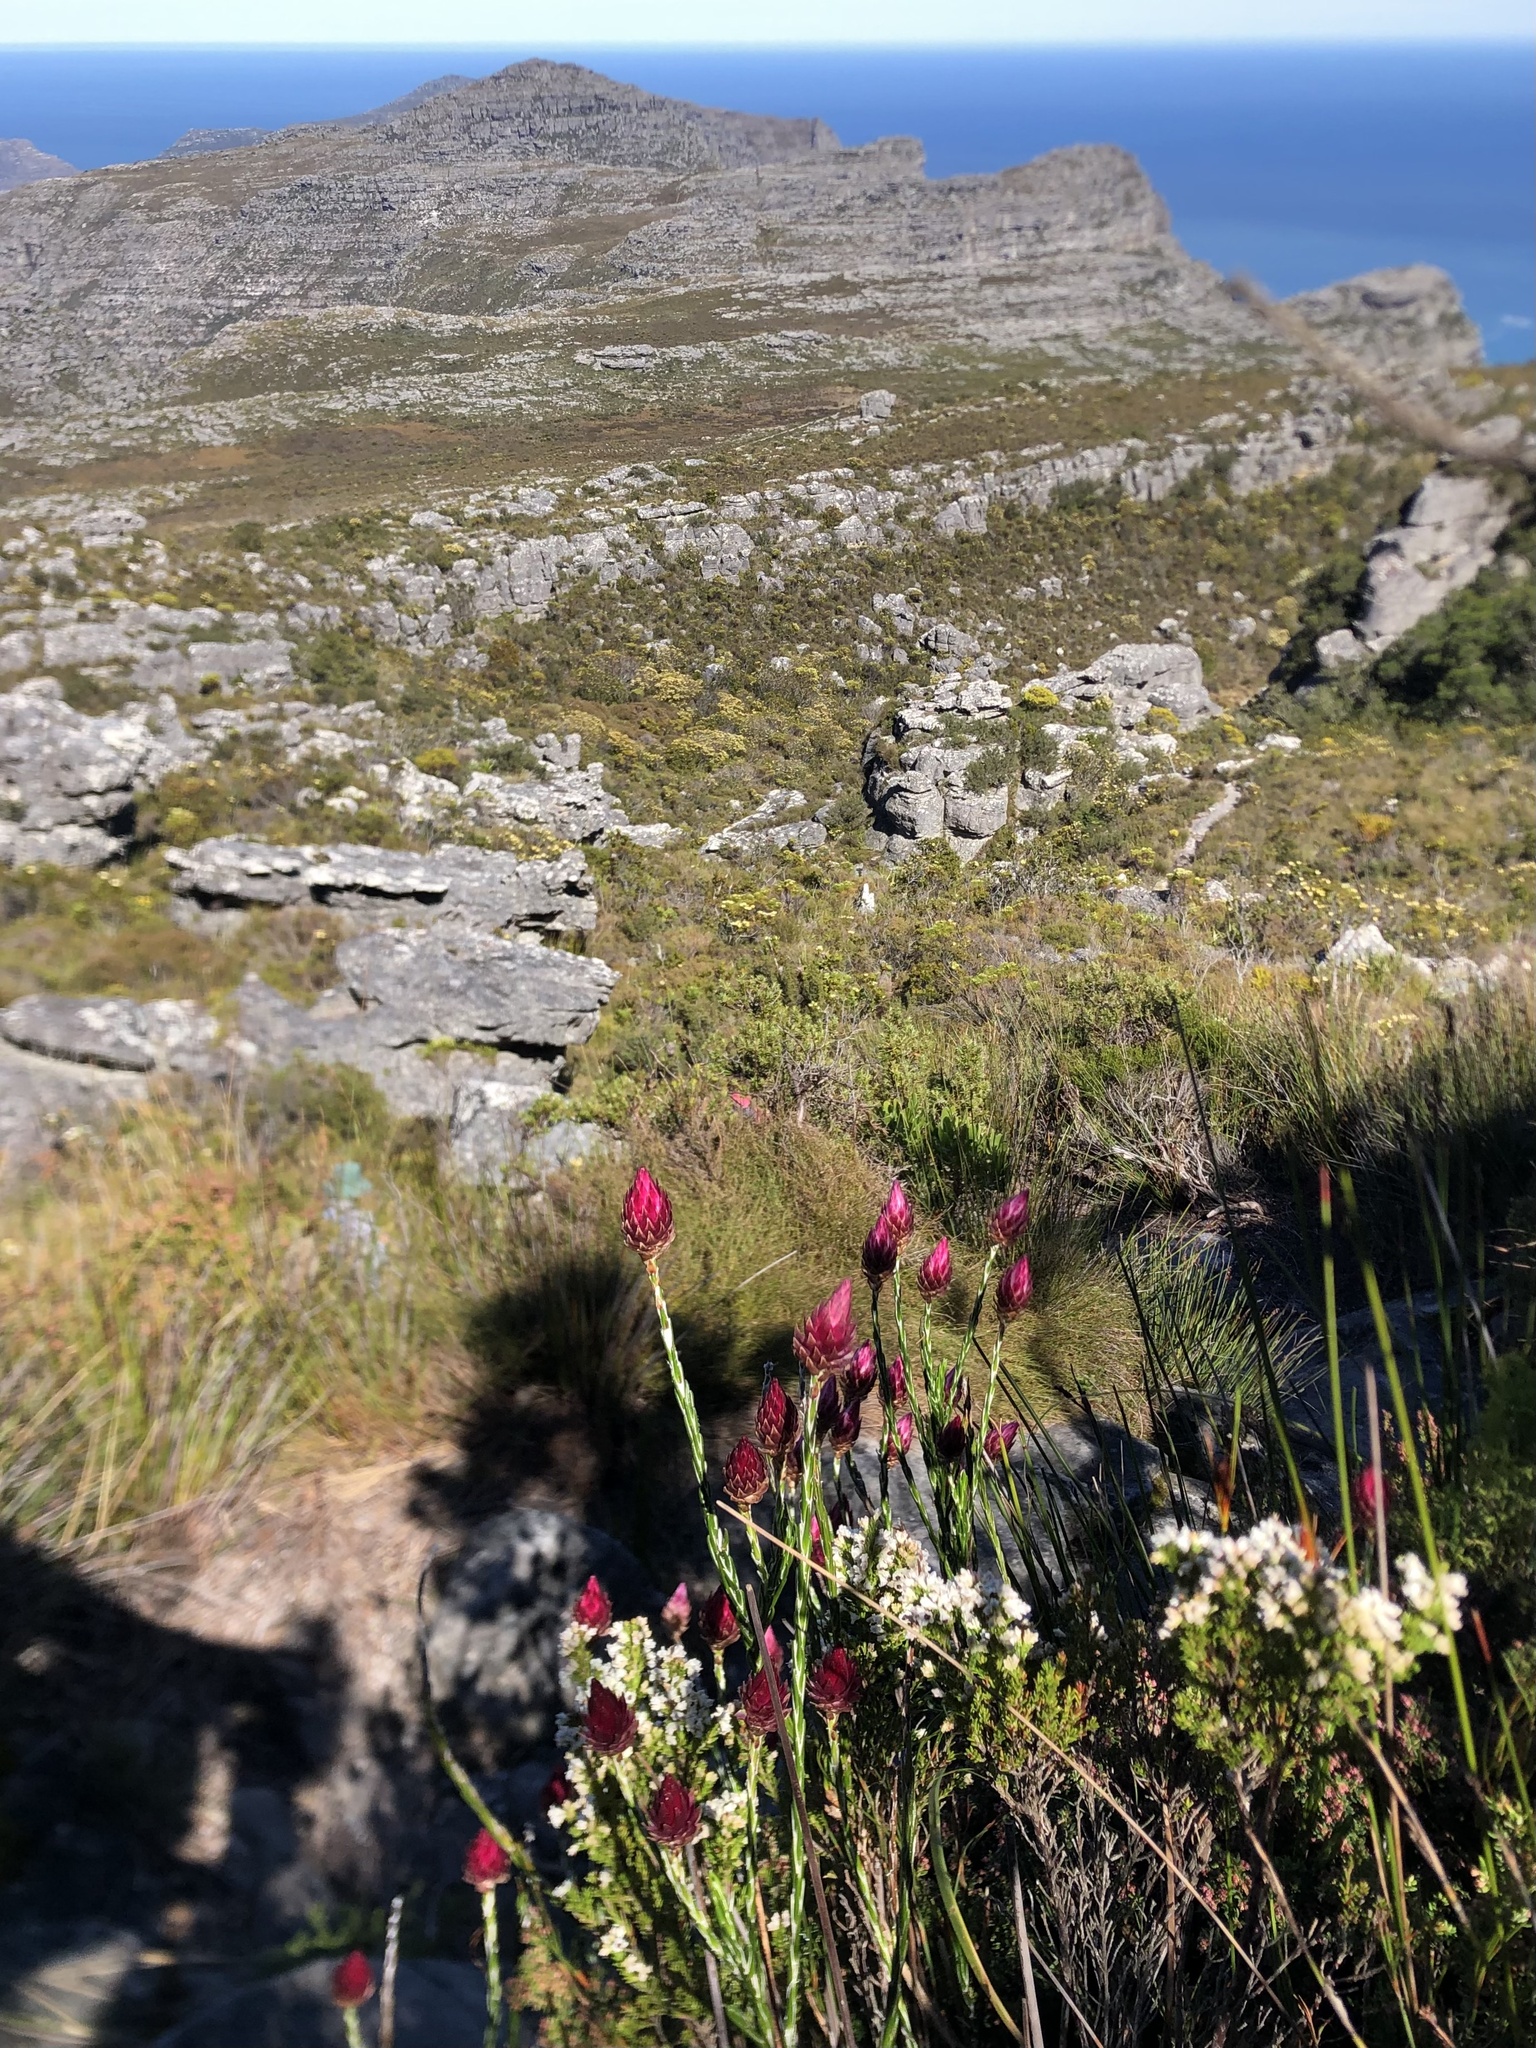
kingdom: Plantae
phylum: Tracheophyta
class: Magnoliopsida
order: Asterales
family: Asteraceae
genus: Edmondia
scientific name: Edmondia pinifolia
